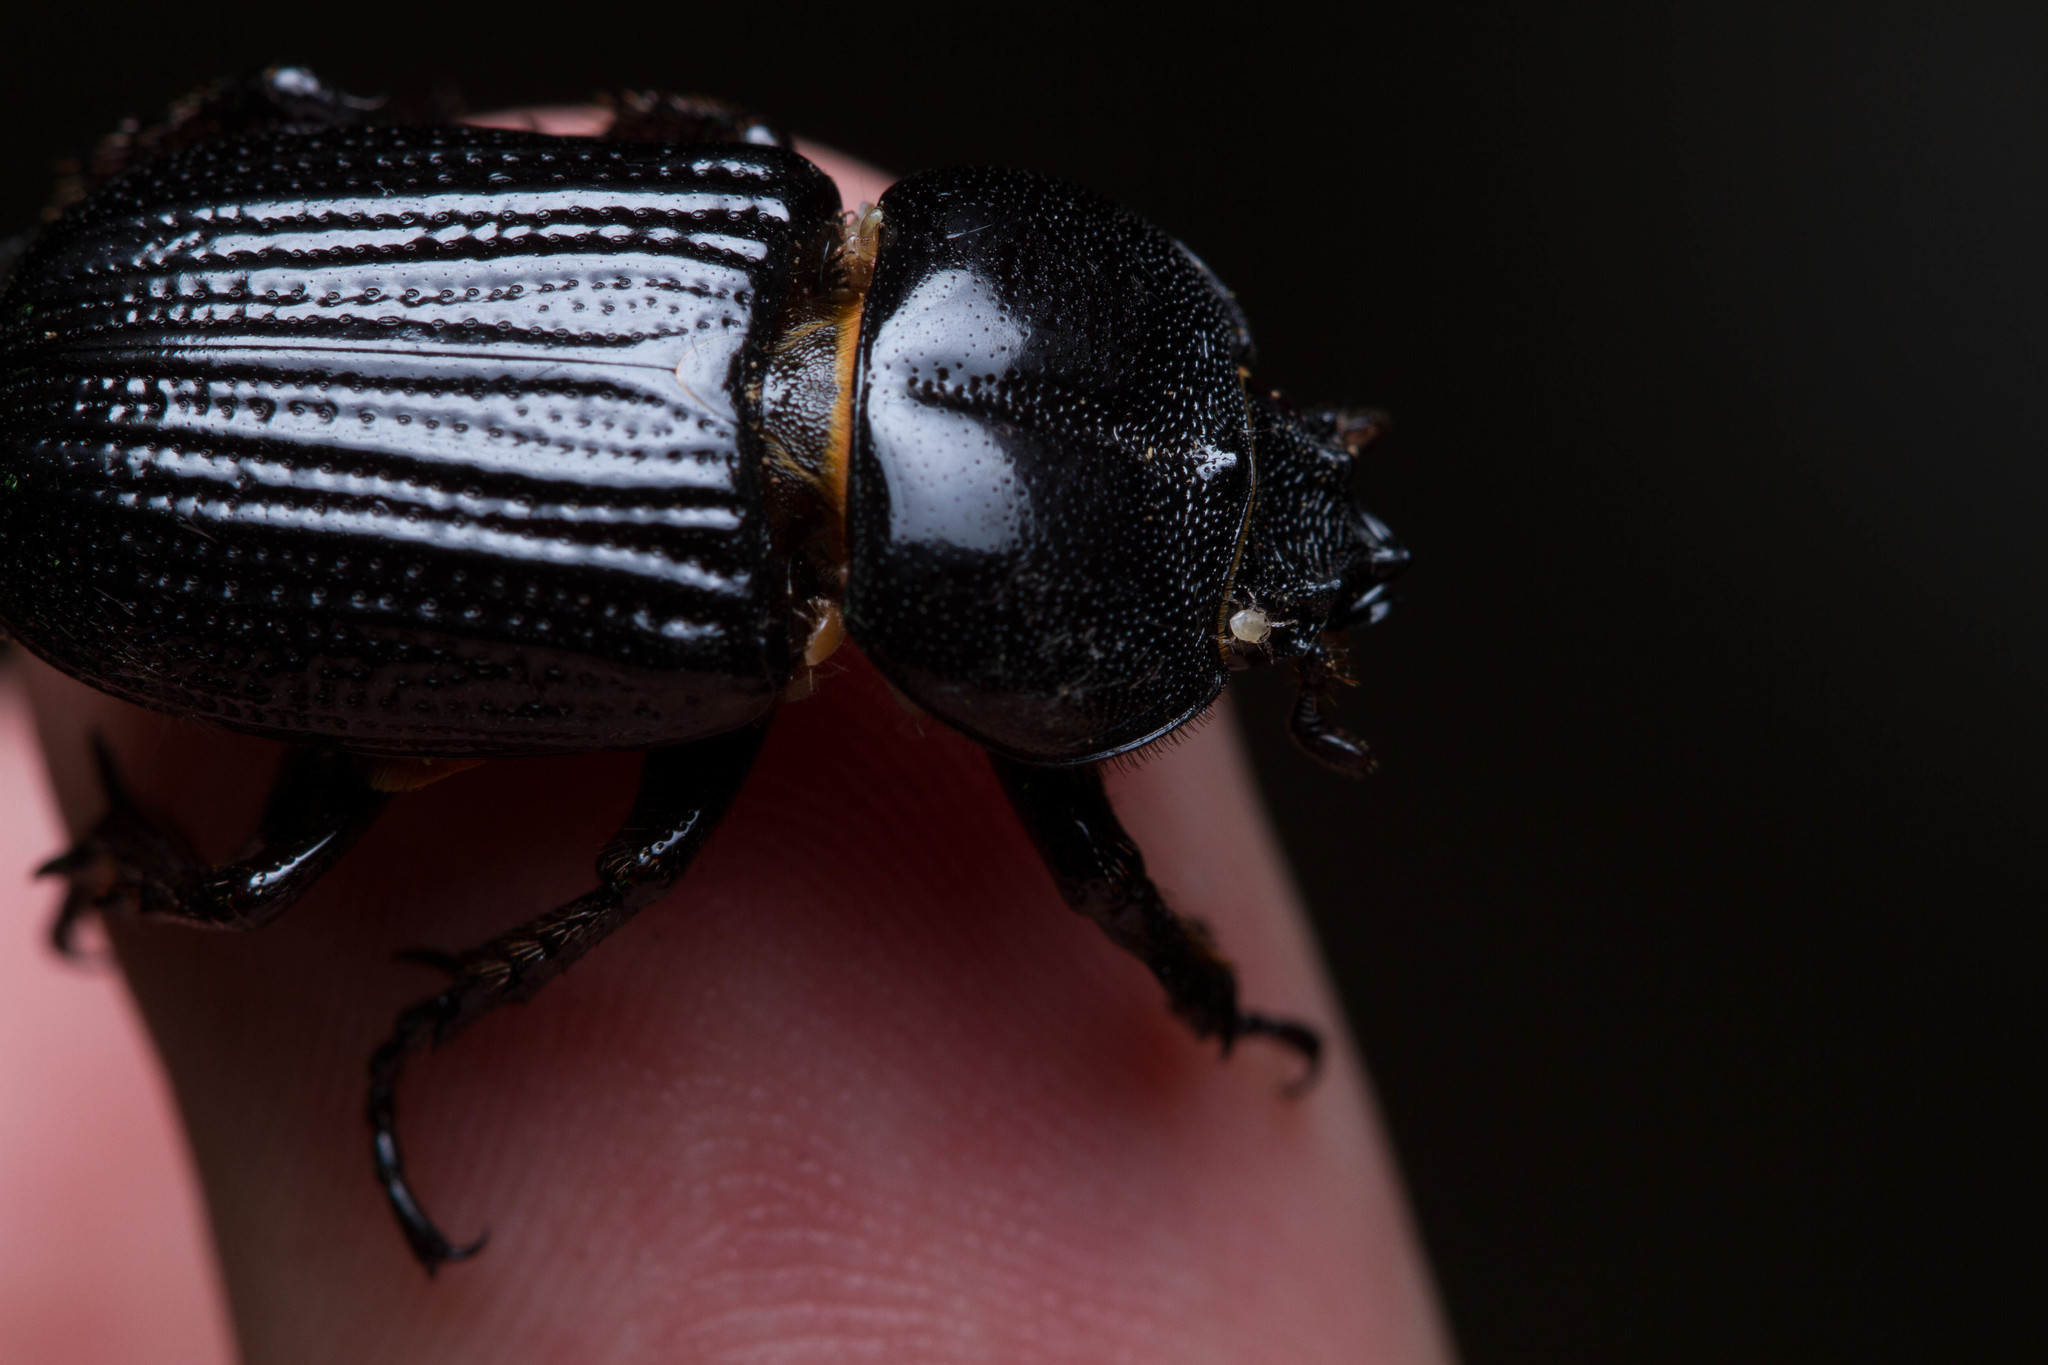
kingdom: Animalia
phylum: Arthropoda
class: Insecta
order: Coleoptera
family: Scarabaeidae
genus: Phileurus
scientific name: Phileurus valgus
